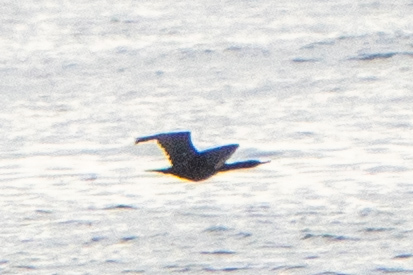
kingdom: Animalia
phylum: Chordata
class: Aves
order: Suliformes
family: Phalacrocoracidae
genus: Phalacrocorax
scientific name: Phalacrocorax pelagicus
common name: Pelagic cormorant
